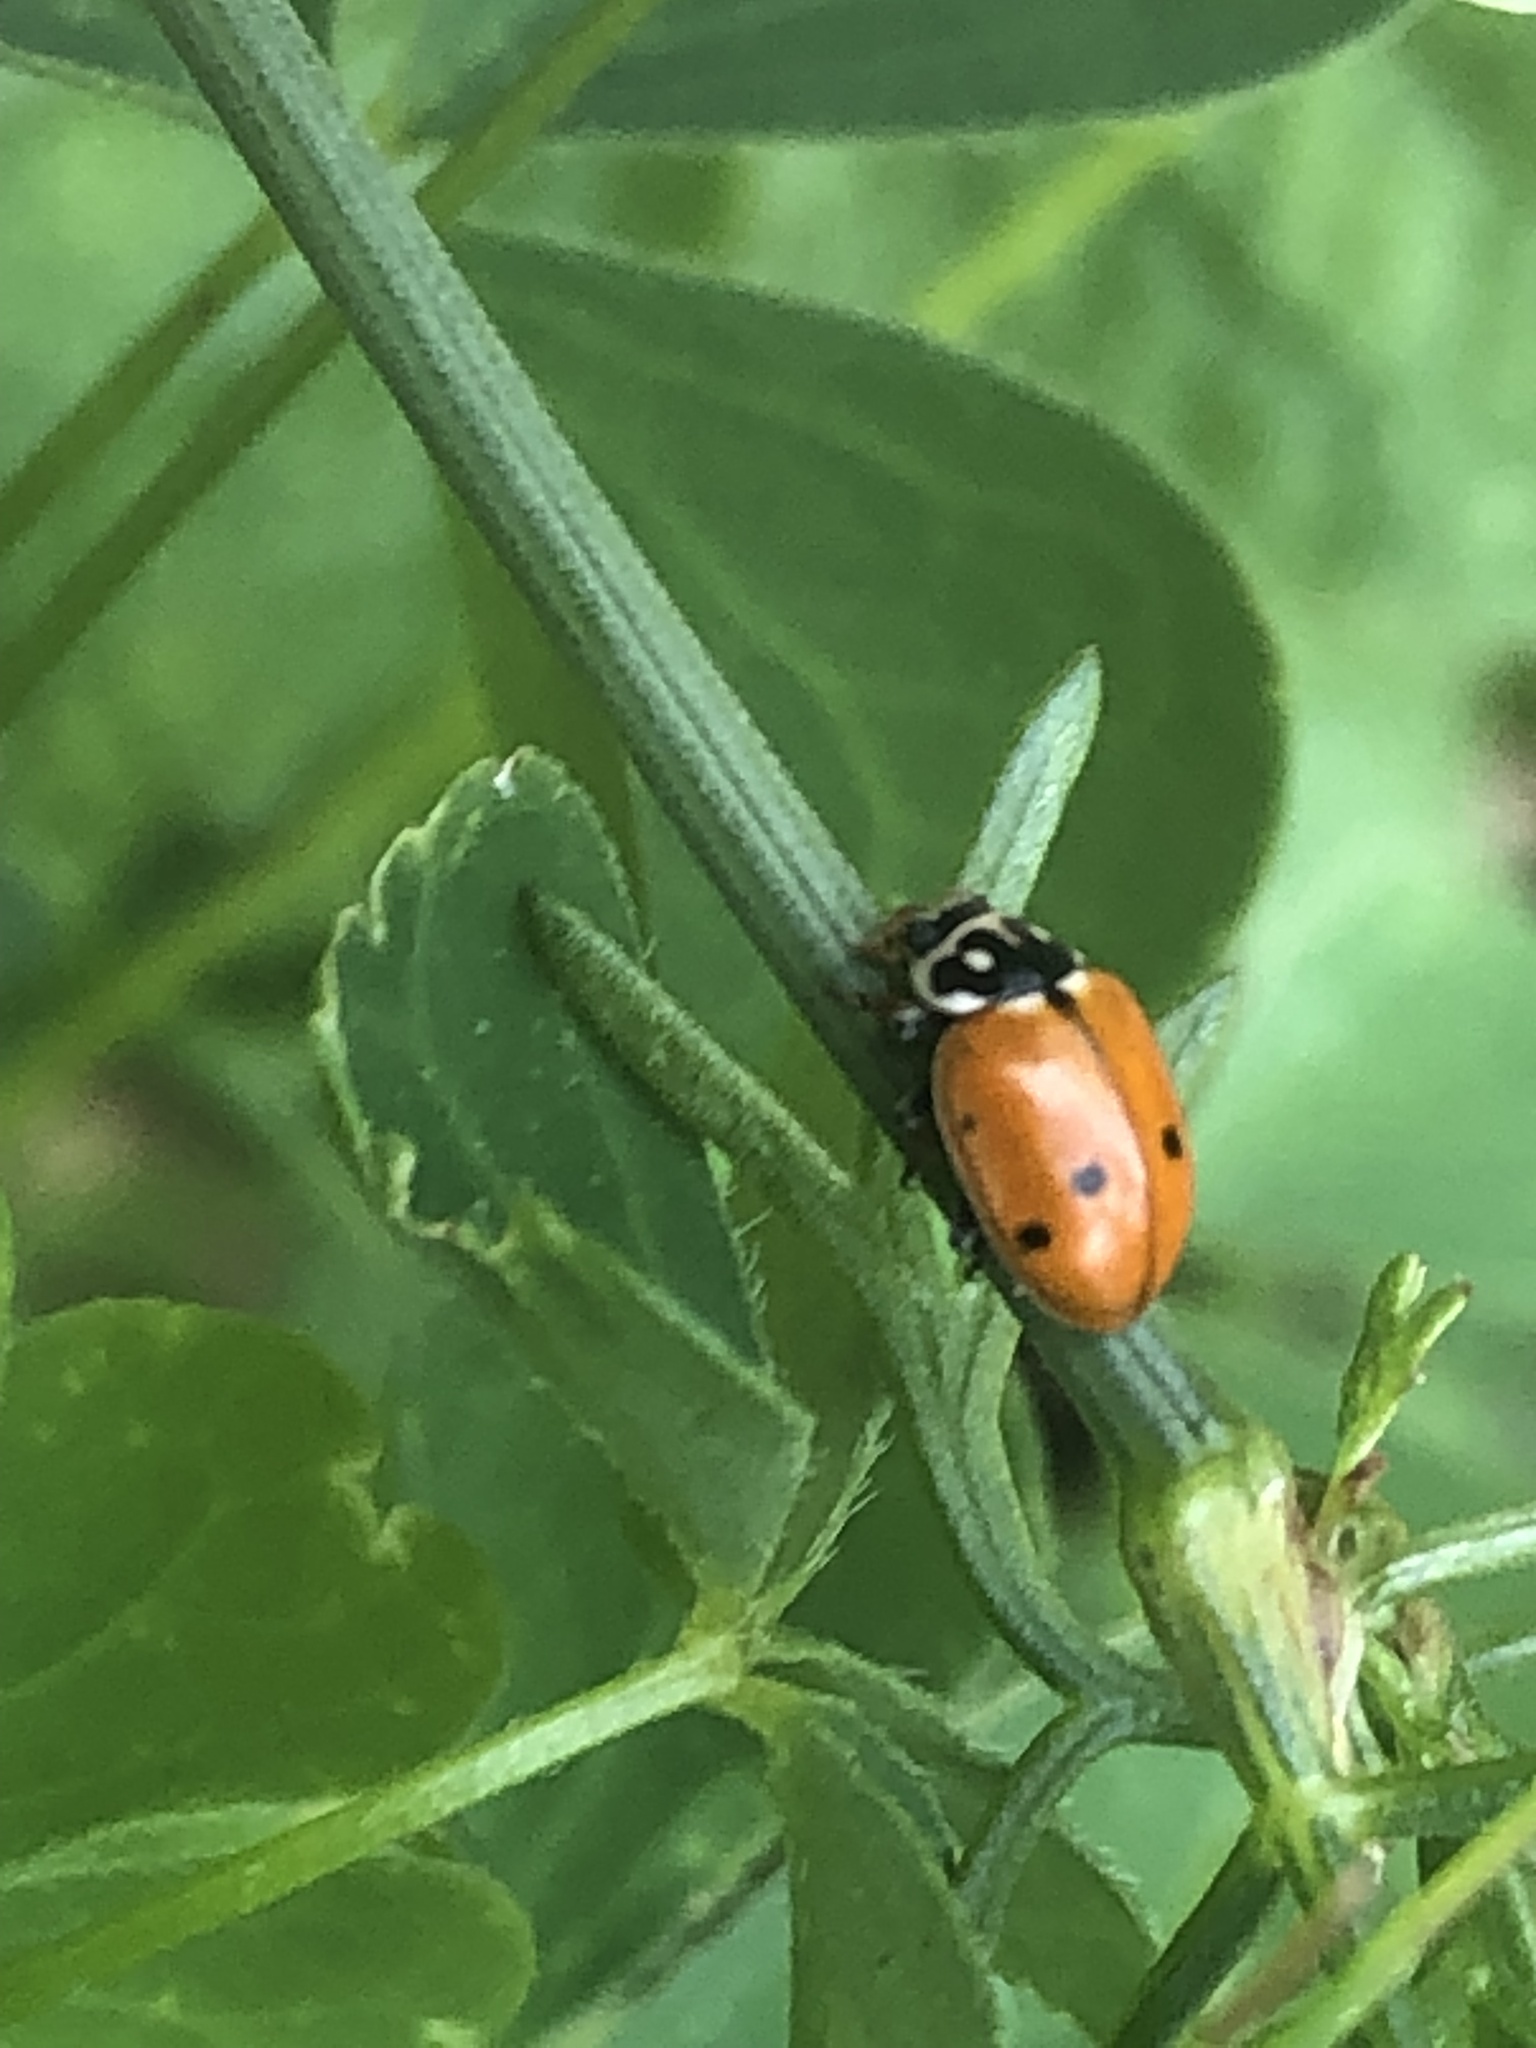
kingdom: Animalia
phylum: Arthropoda
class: Insecta
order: Coleoptera
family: Coccinellidae
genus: Hippodamia
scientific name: Hippodamia variegata
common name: Ladybird beetle
